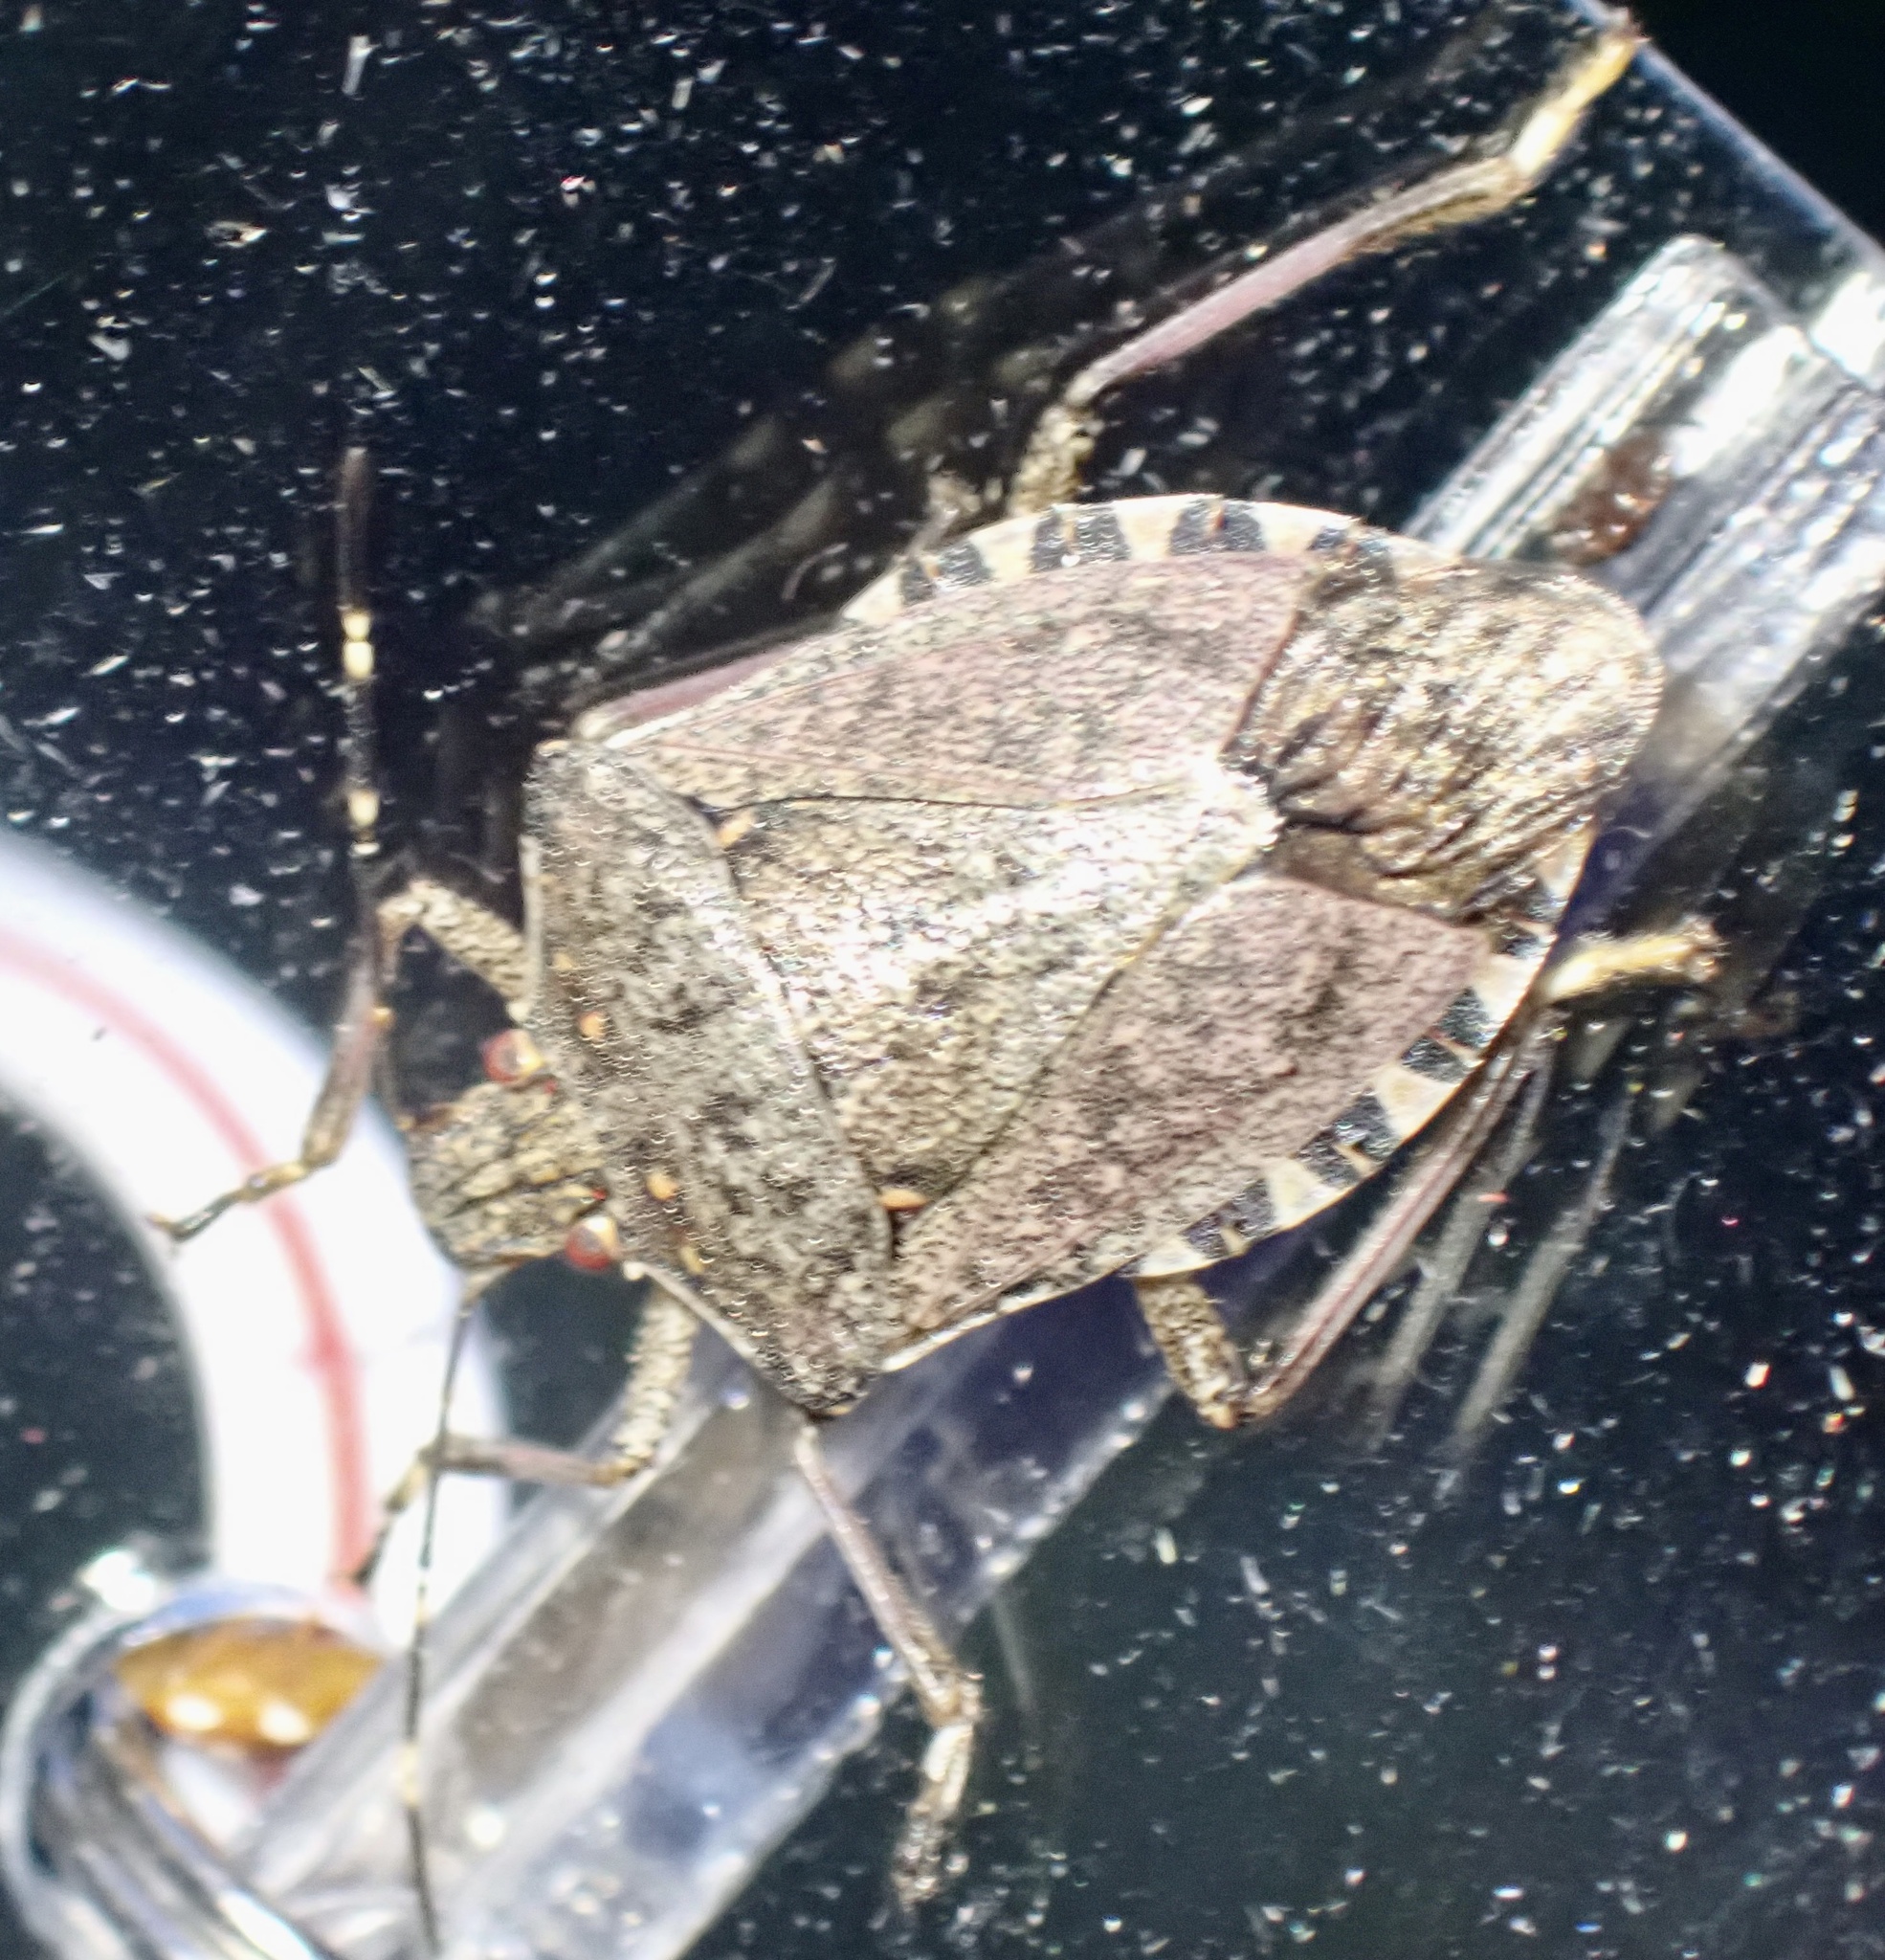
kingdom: Animalia
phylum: Arthropoda
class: Insecta
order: Hemiptera
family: Pentatomidae
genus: Halyomorpha
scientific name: Halyomorpha halys
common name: Brown marmorated stink bug
